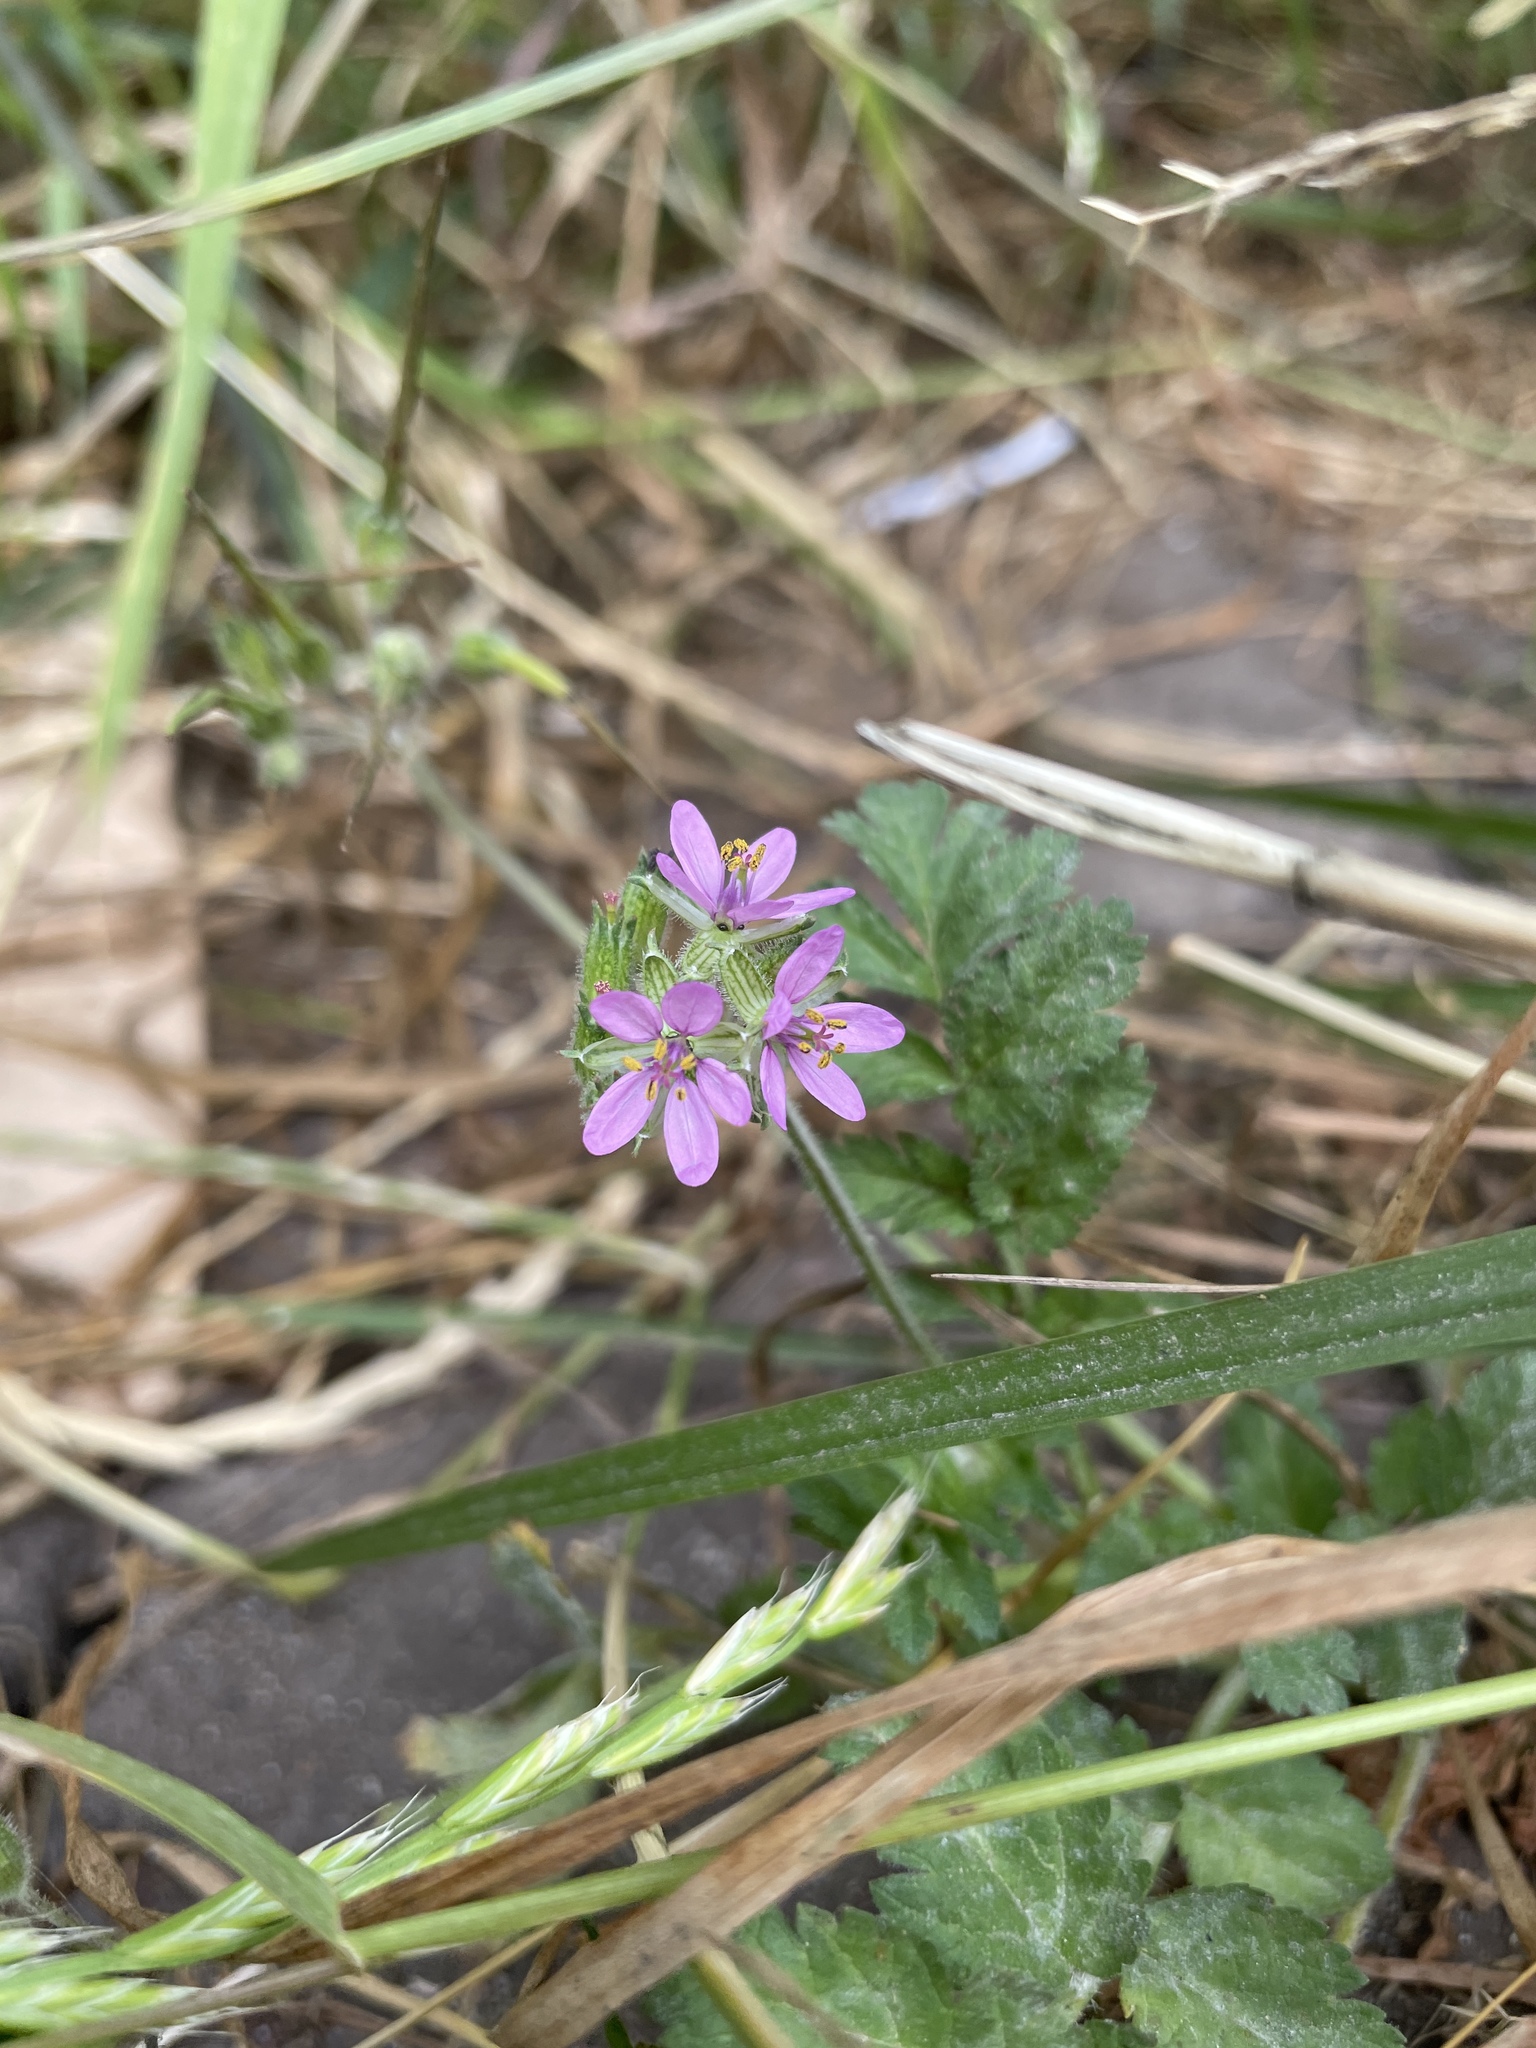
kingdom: Plantae
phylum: Tracheophyta
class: Magnoliopsida
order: Geraniales
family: Geraniaceae
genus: Erodium
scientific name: Erodium moschatum
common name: Musk stork's-bill
